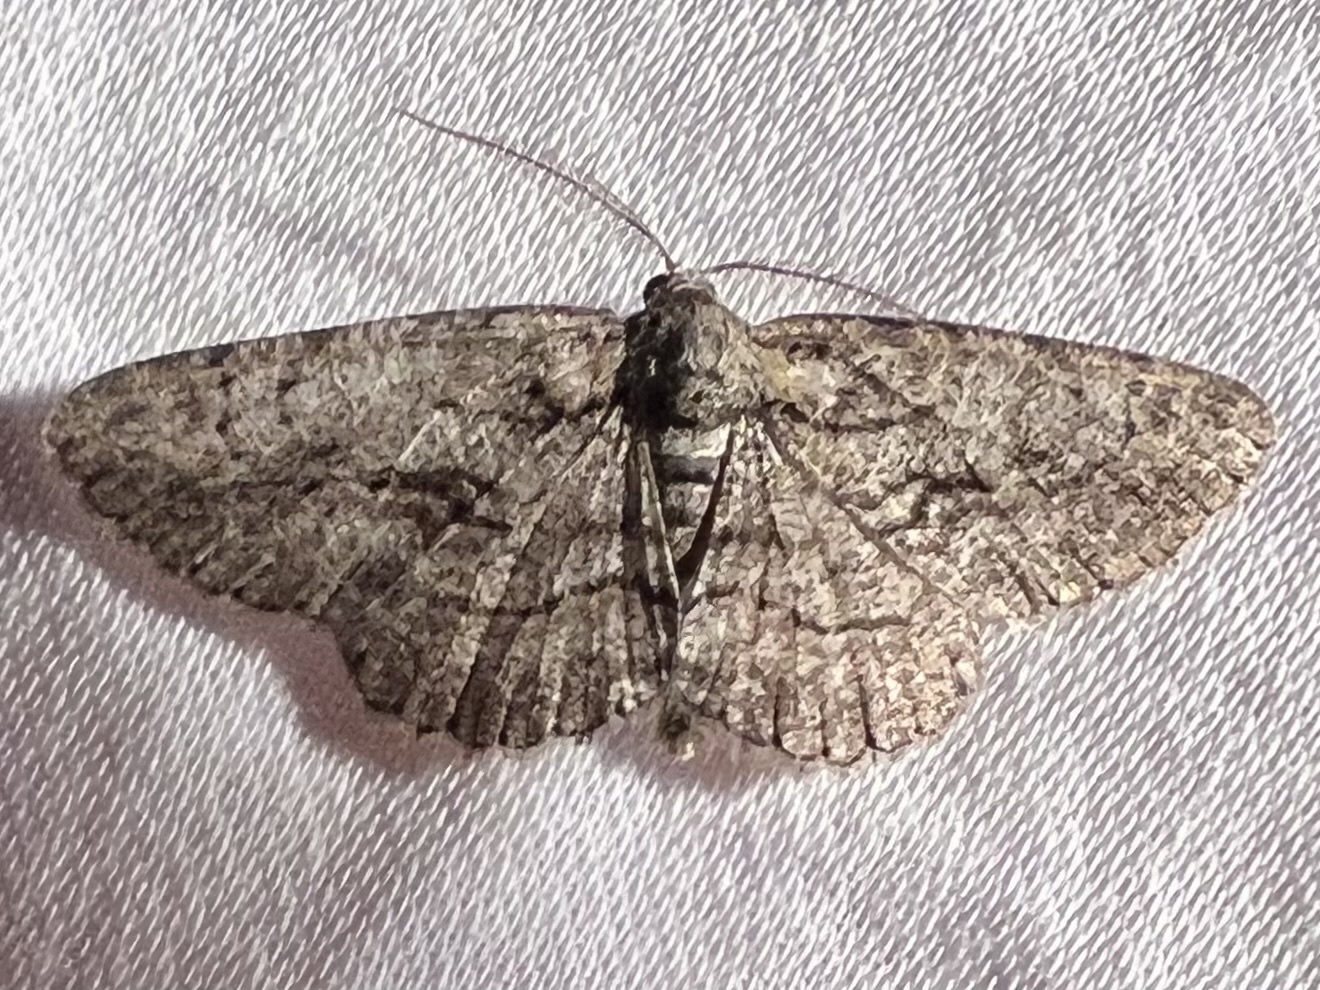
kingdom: Animalia
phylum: Arthropoda
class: Insecta
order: Lepidoptera
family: Geometridae
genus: Anavitrinella
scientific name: Anavitrinella pampinaria
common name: Common gray
